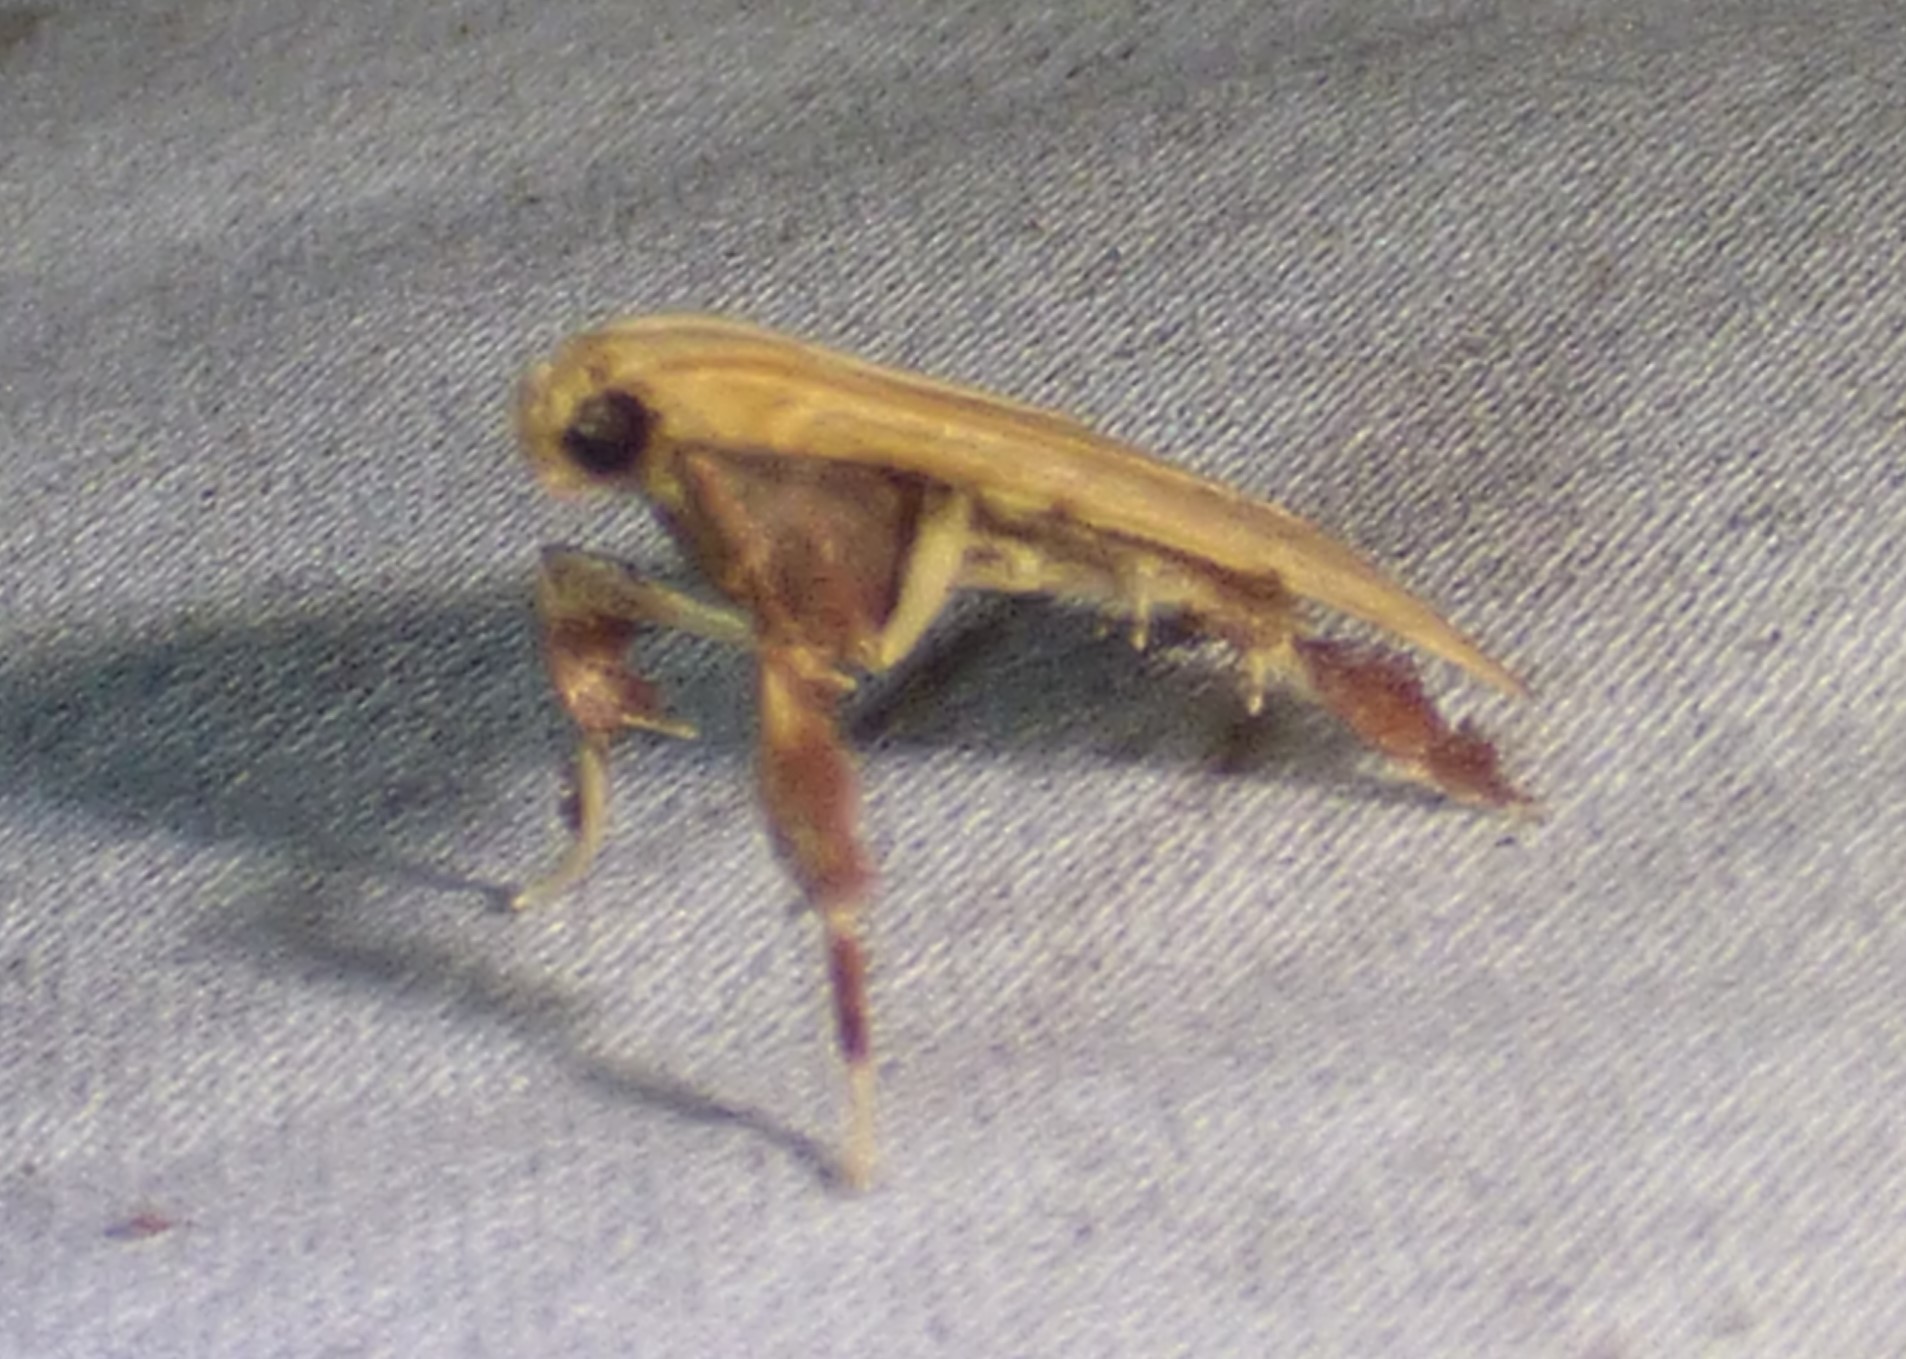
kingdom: Animalia
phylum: Arthropoda
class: Insecta
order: Lepidoptera
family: Pyralidae
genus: Parachma
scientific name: Parachma ochracealis
